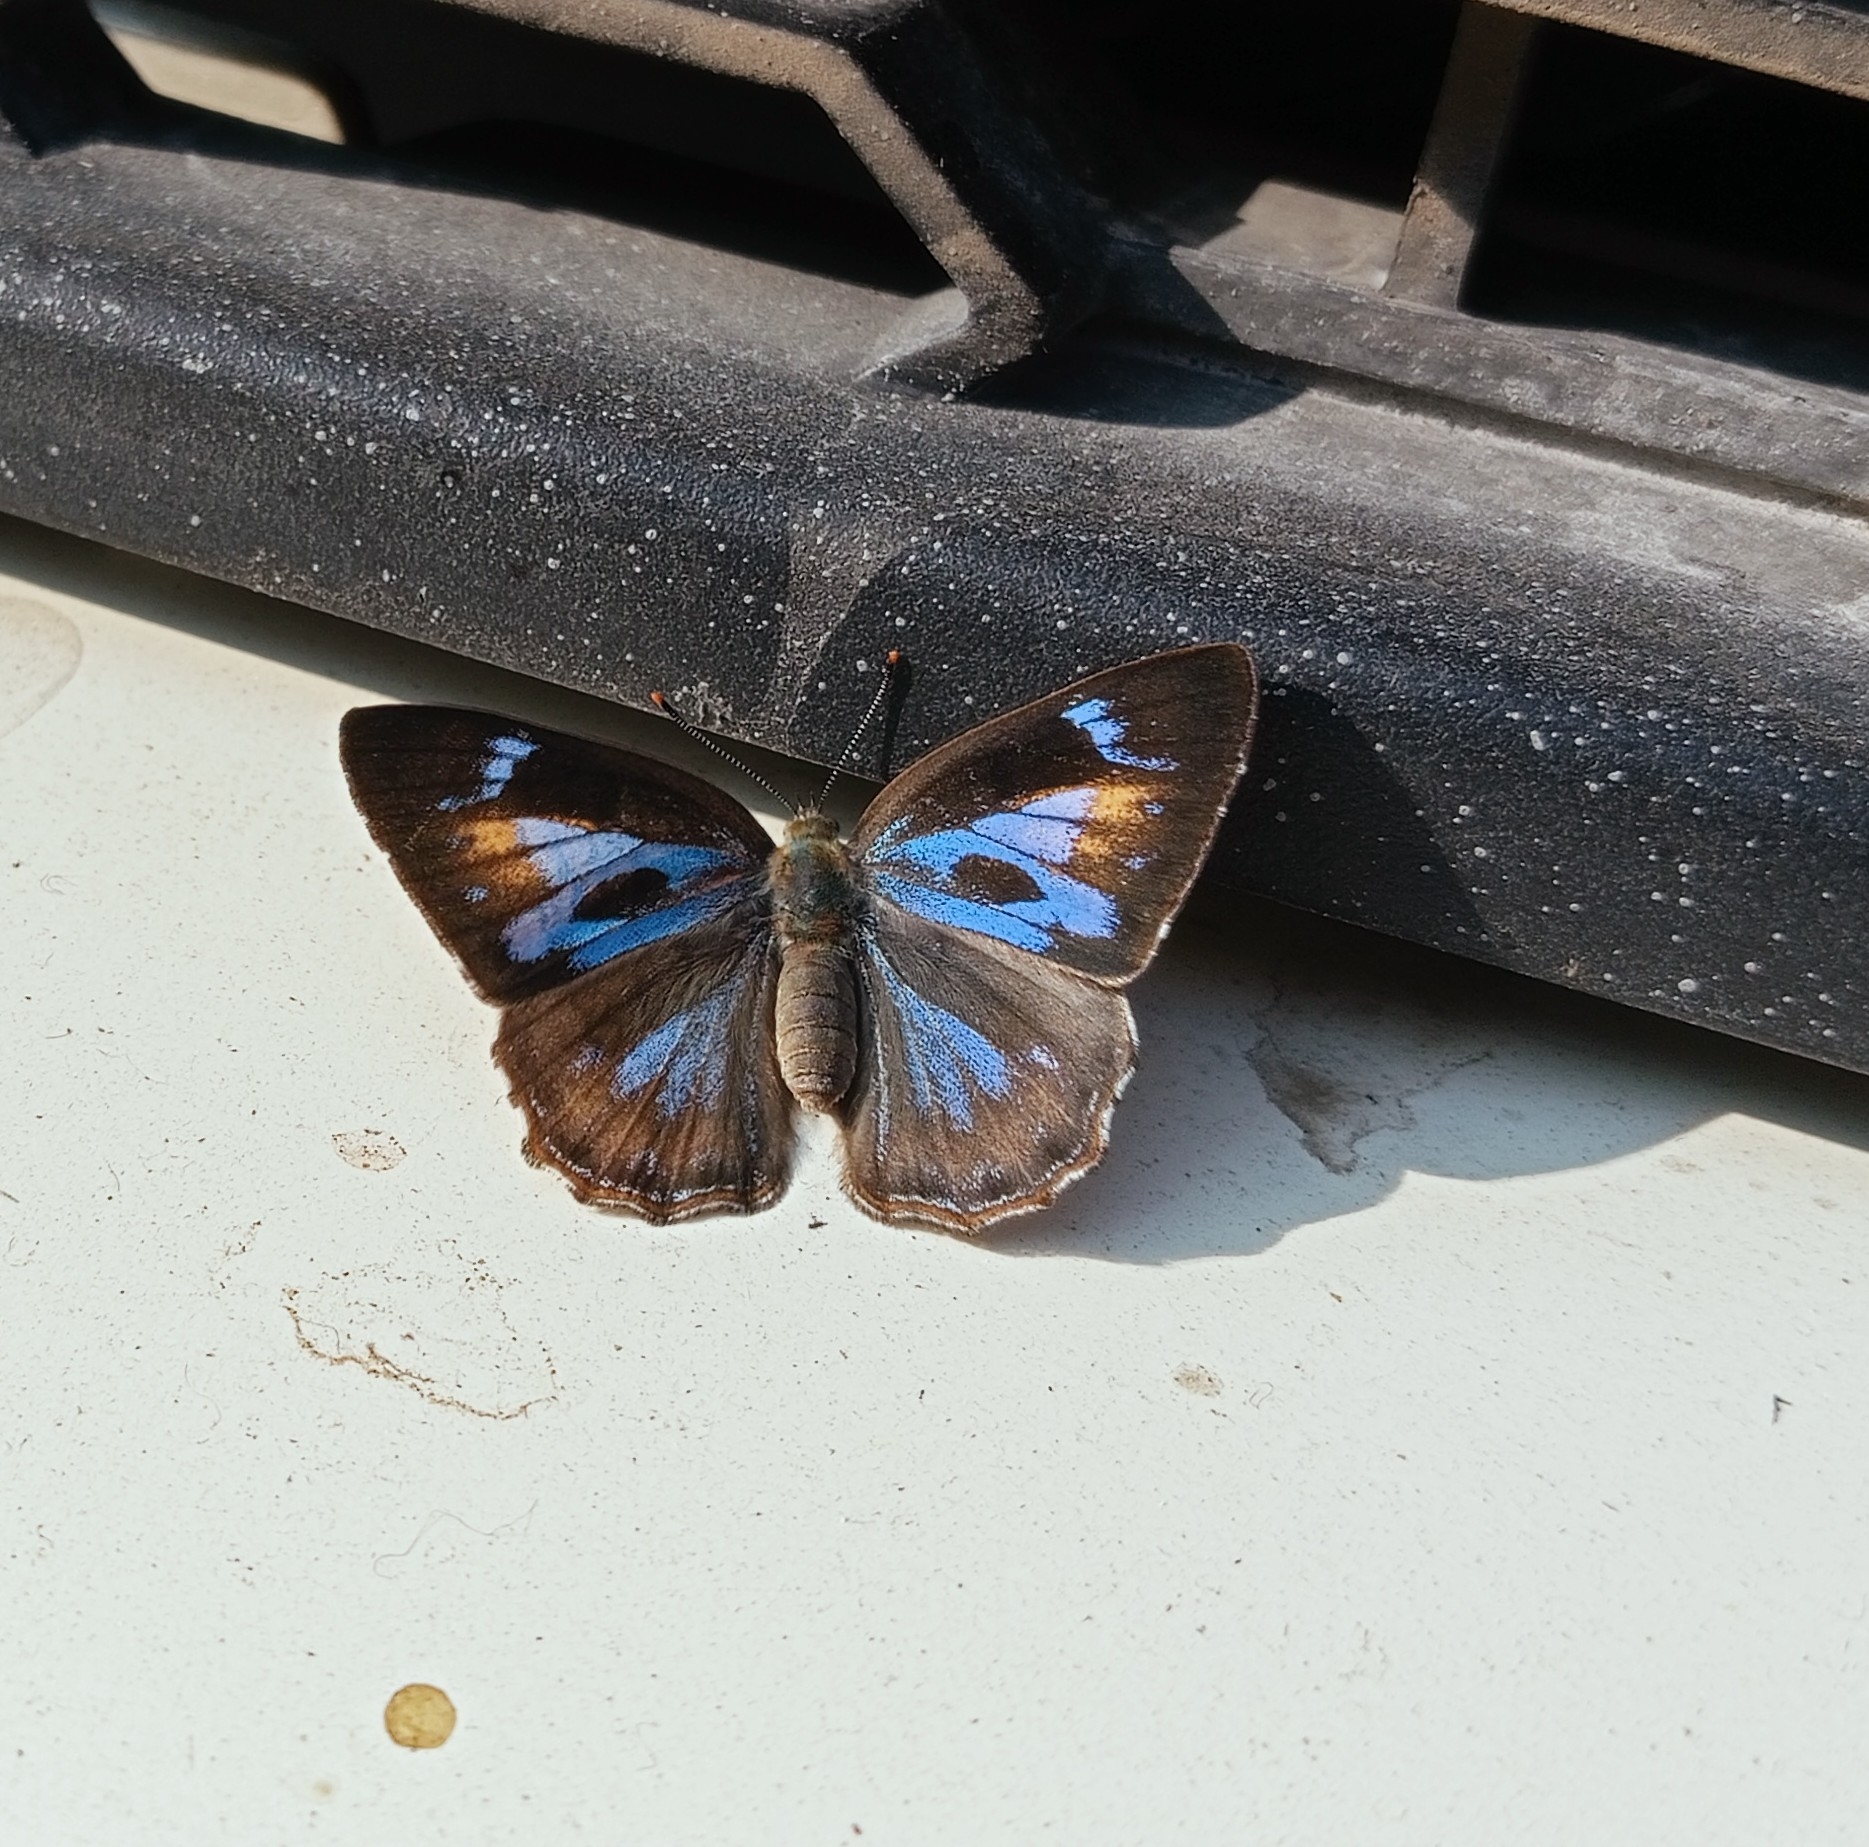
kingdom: Animalia
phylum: Arthropoda
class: Insecta
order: Lepidoptera
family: Lycaenidae
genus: Poritia
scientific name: Poritia hewitsoni
